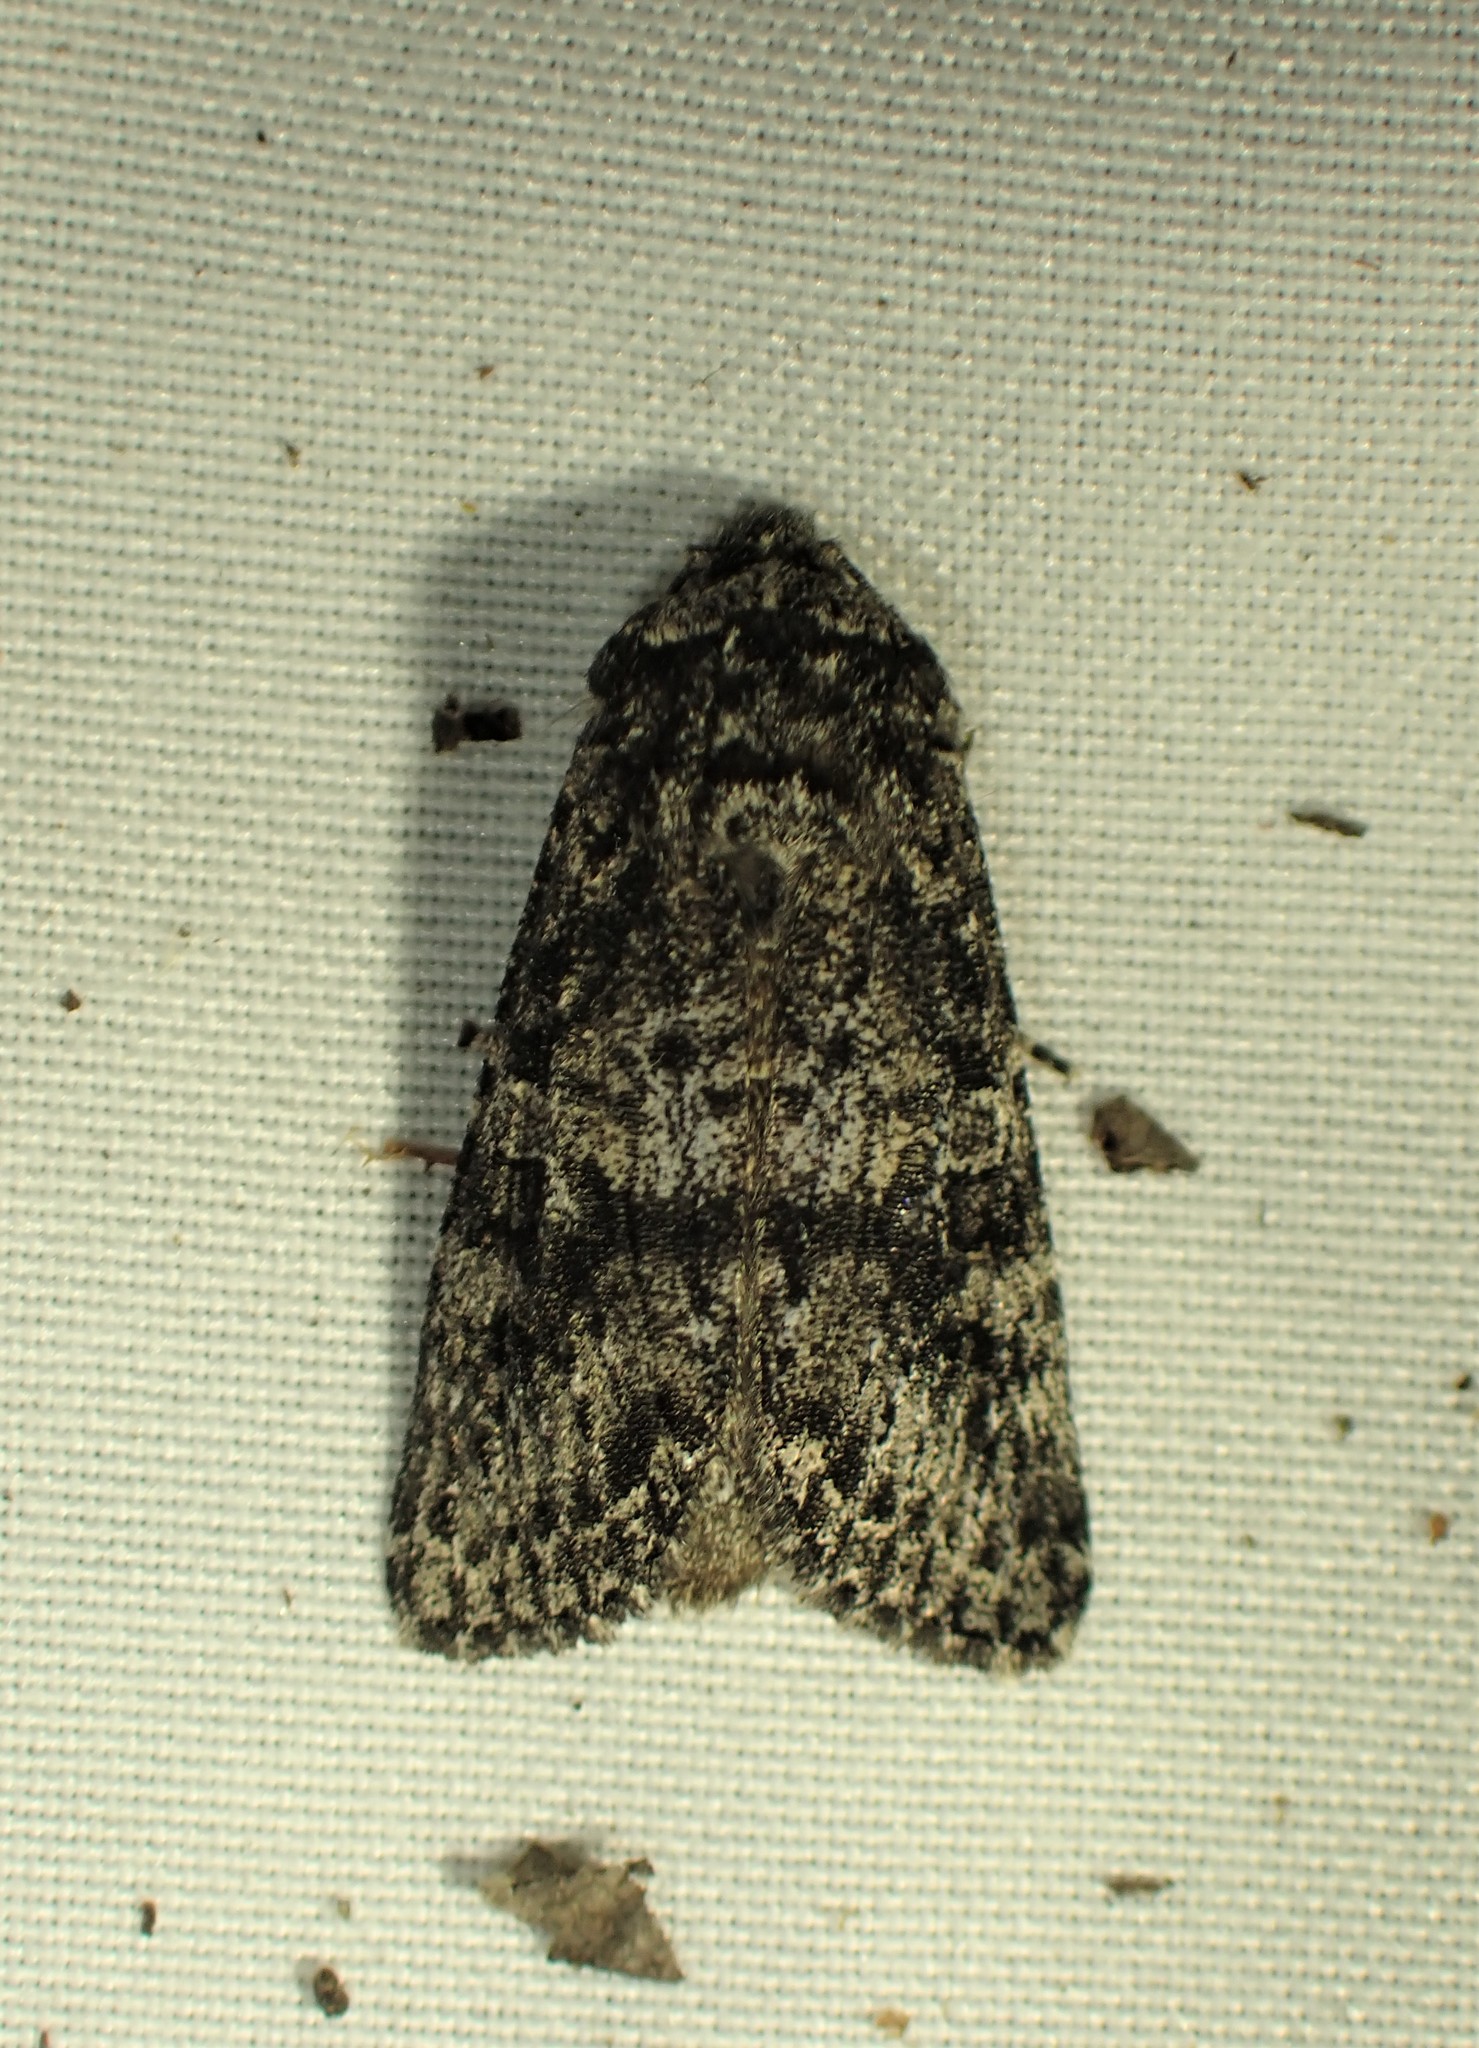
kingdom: Animalia
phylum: Arthropoda
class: Insecta
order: Lepidoptera
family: Noctuidae
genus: Egira
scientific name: Egira dolosa
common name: Lined black aspen cat.
